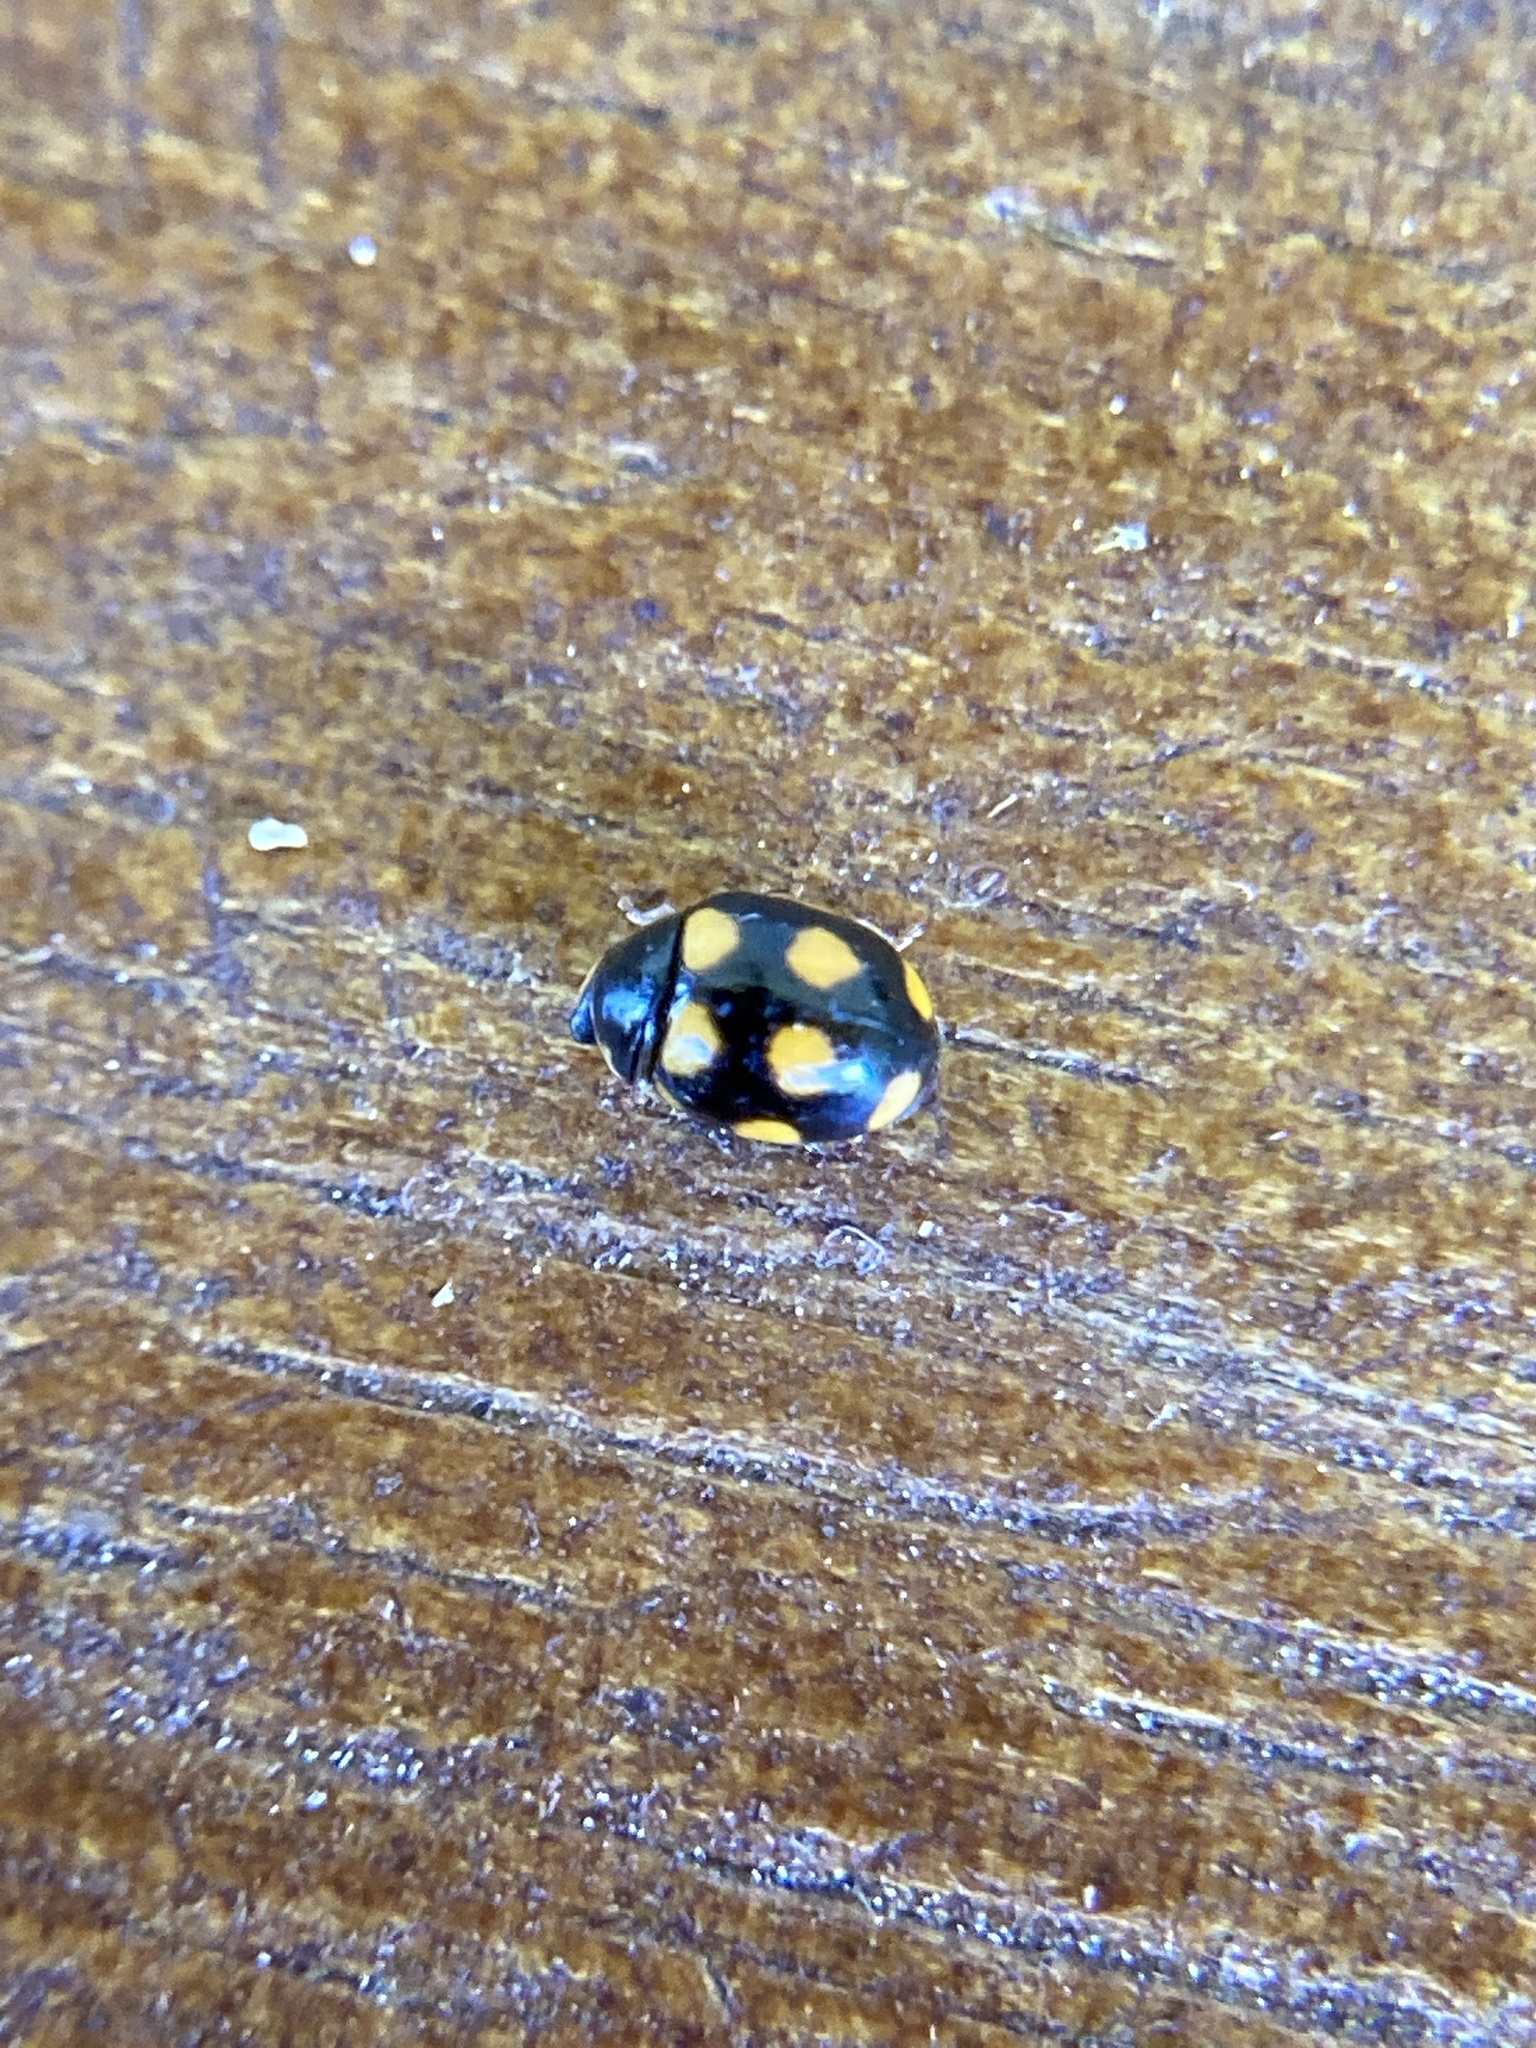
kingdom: Animalia
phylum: Arthropoda
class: Insecta
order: Coleoptera
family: Coccinellidae
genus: Brachiacantha
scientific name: Brachiacantha ursina
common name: Ursine spurleg lady beetle
